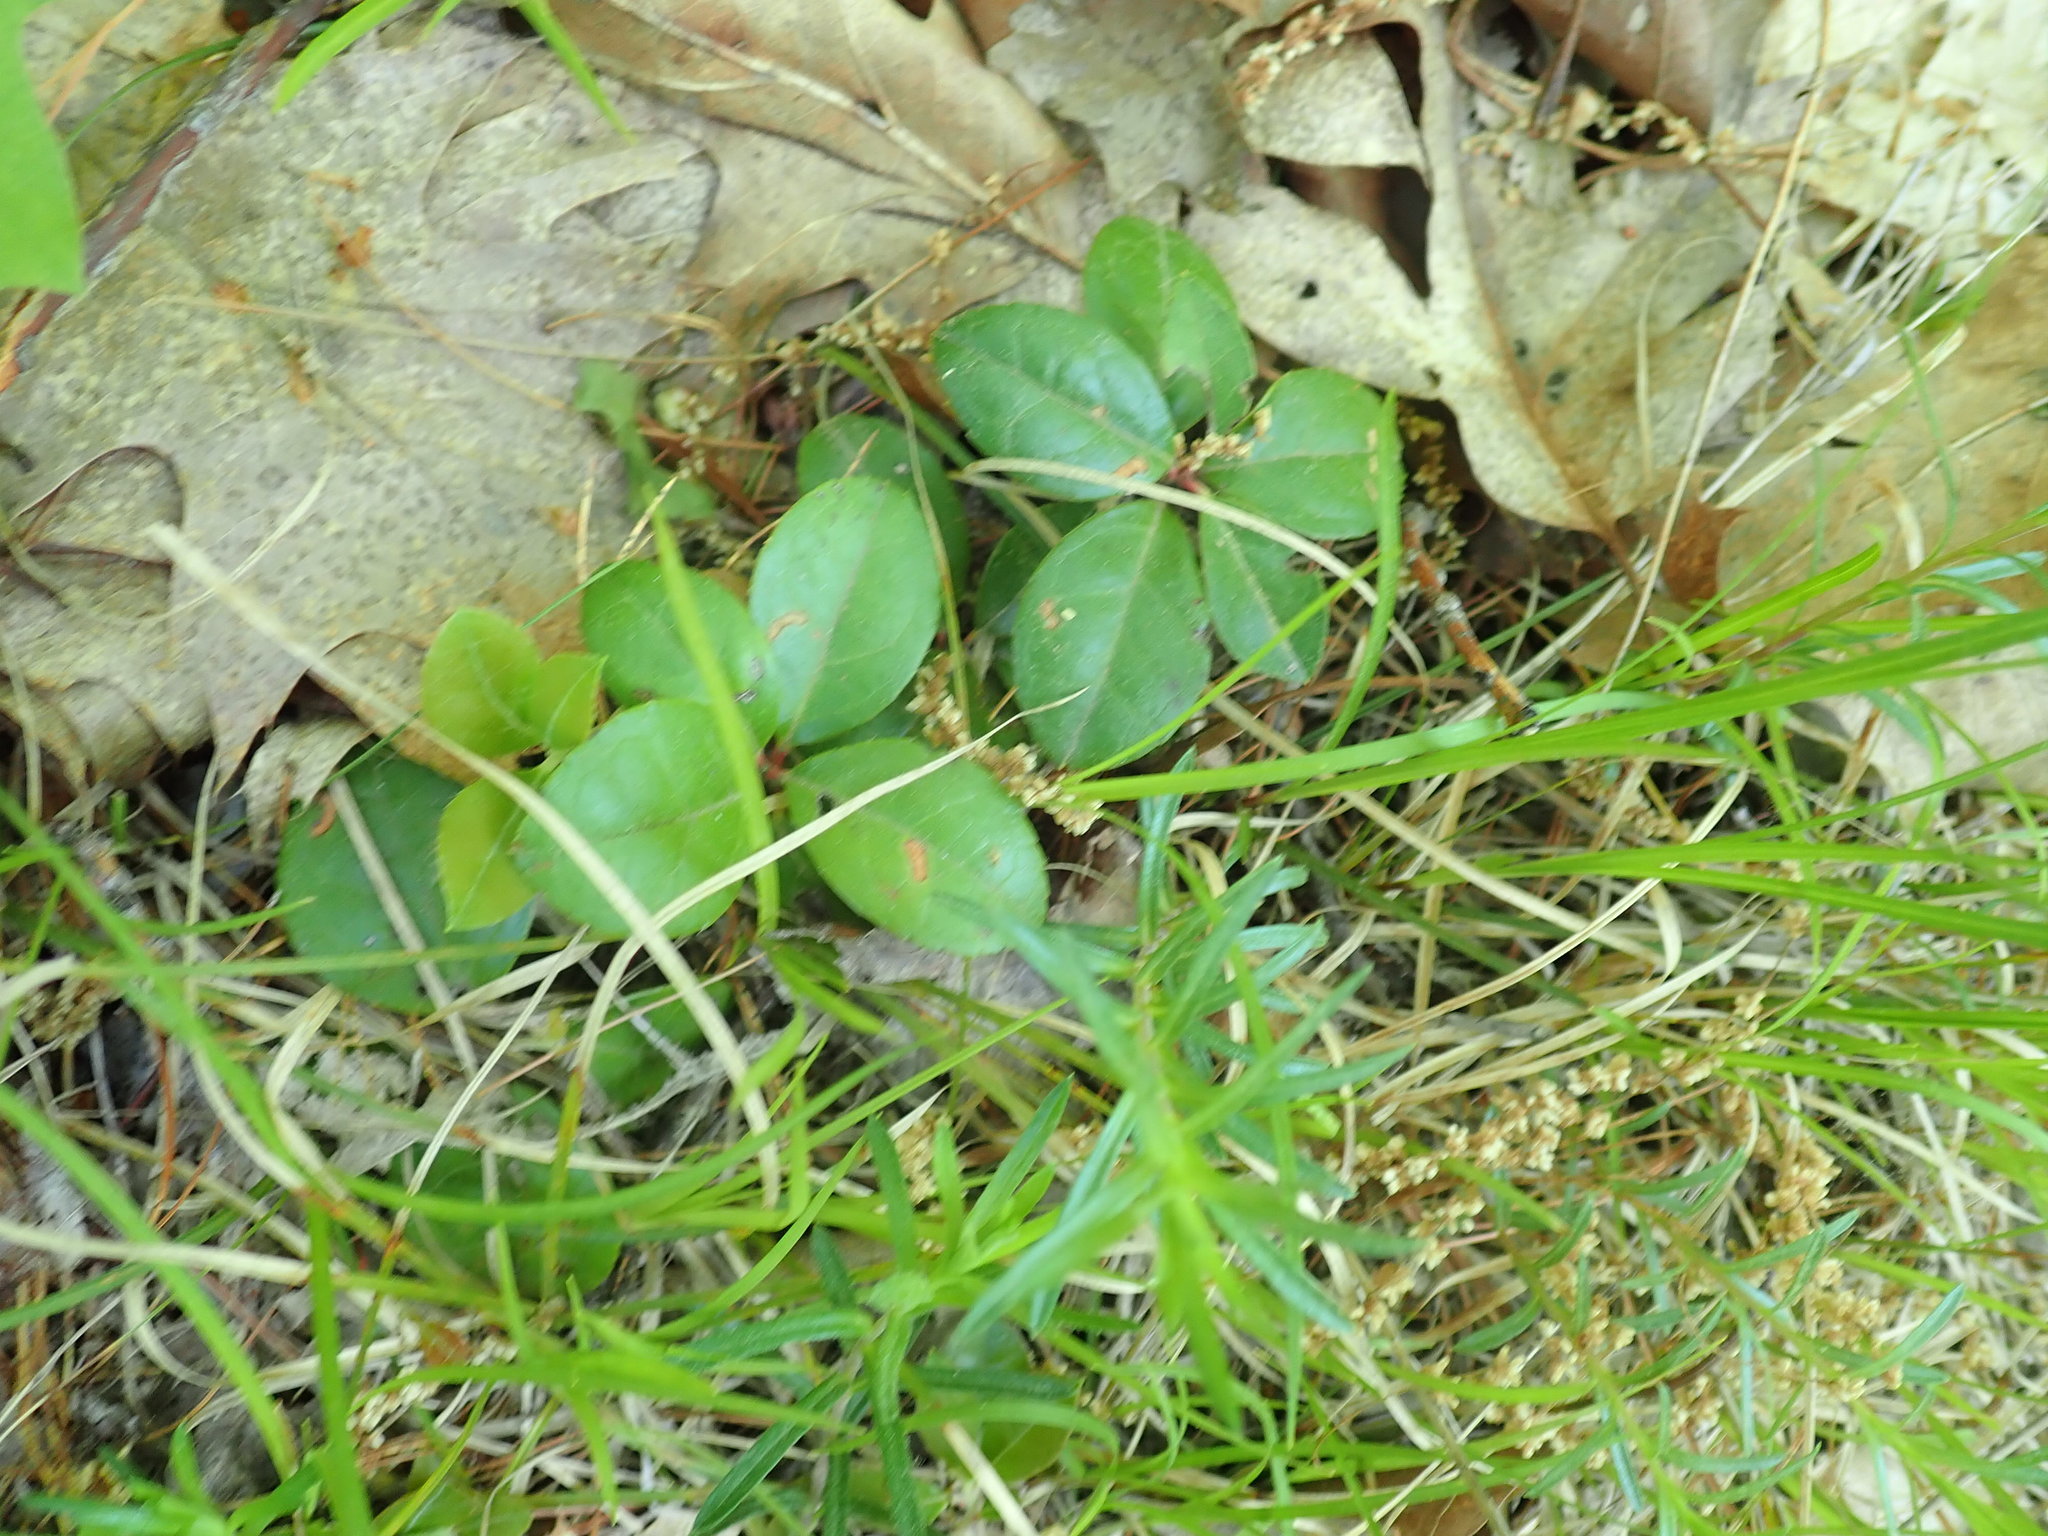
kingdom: Plantae
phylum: Tracheophyta
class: Magnoliopsida
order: Ericales
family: Ericaceae
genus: Gaultheria
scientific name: Gaultheria procumbens
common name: Checkerberry
